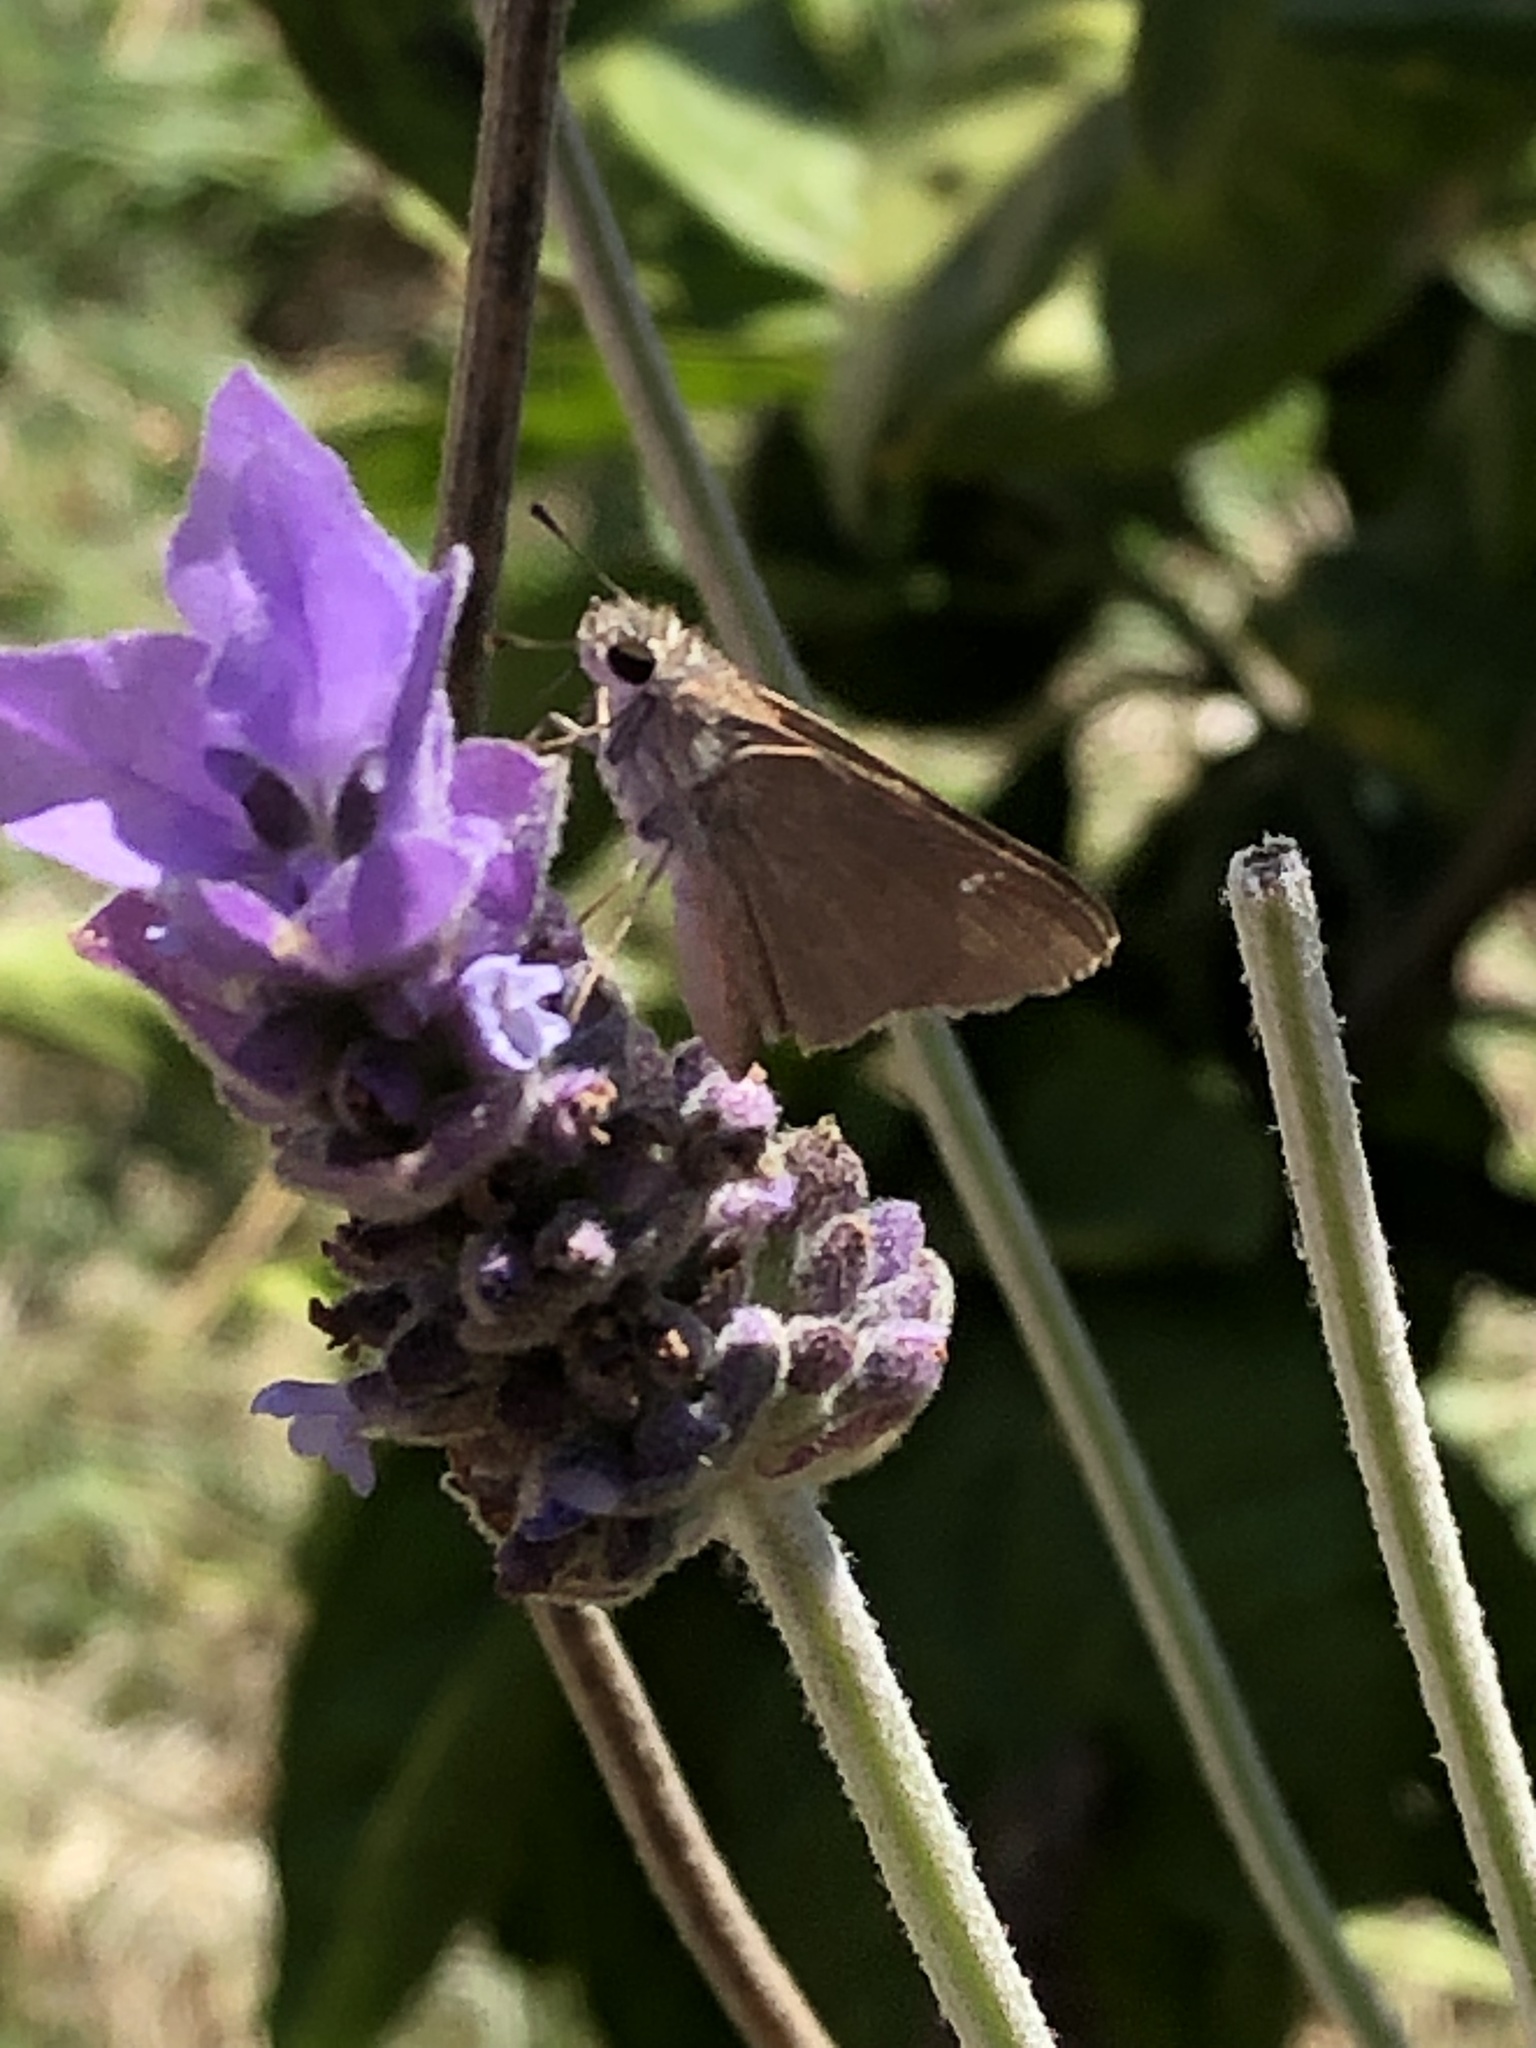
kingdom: Animalia
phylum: Arthropoda
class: Insecta
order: Lepidoptera
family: Hesperiidae
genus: Lerodea
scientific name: Lerodea eufala
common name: Eufala skipper
